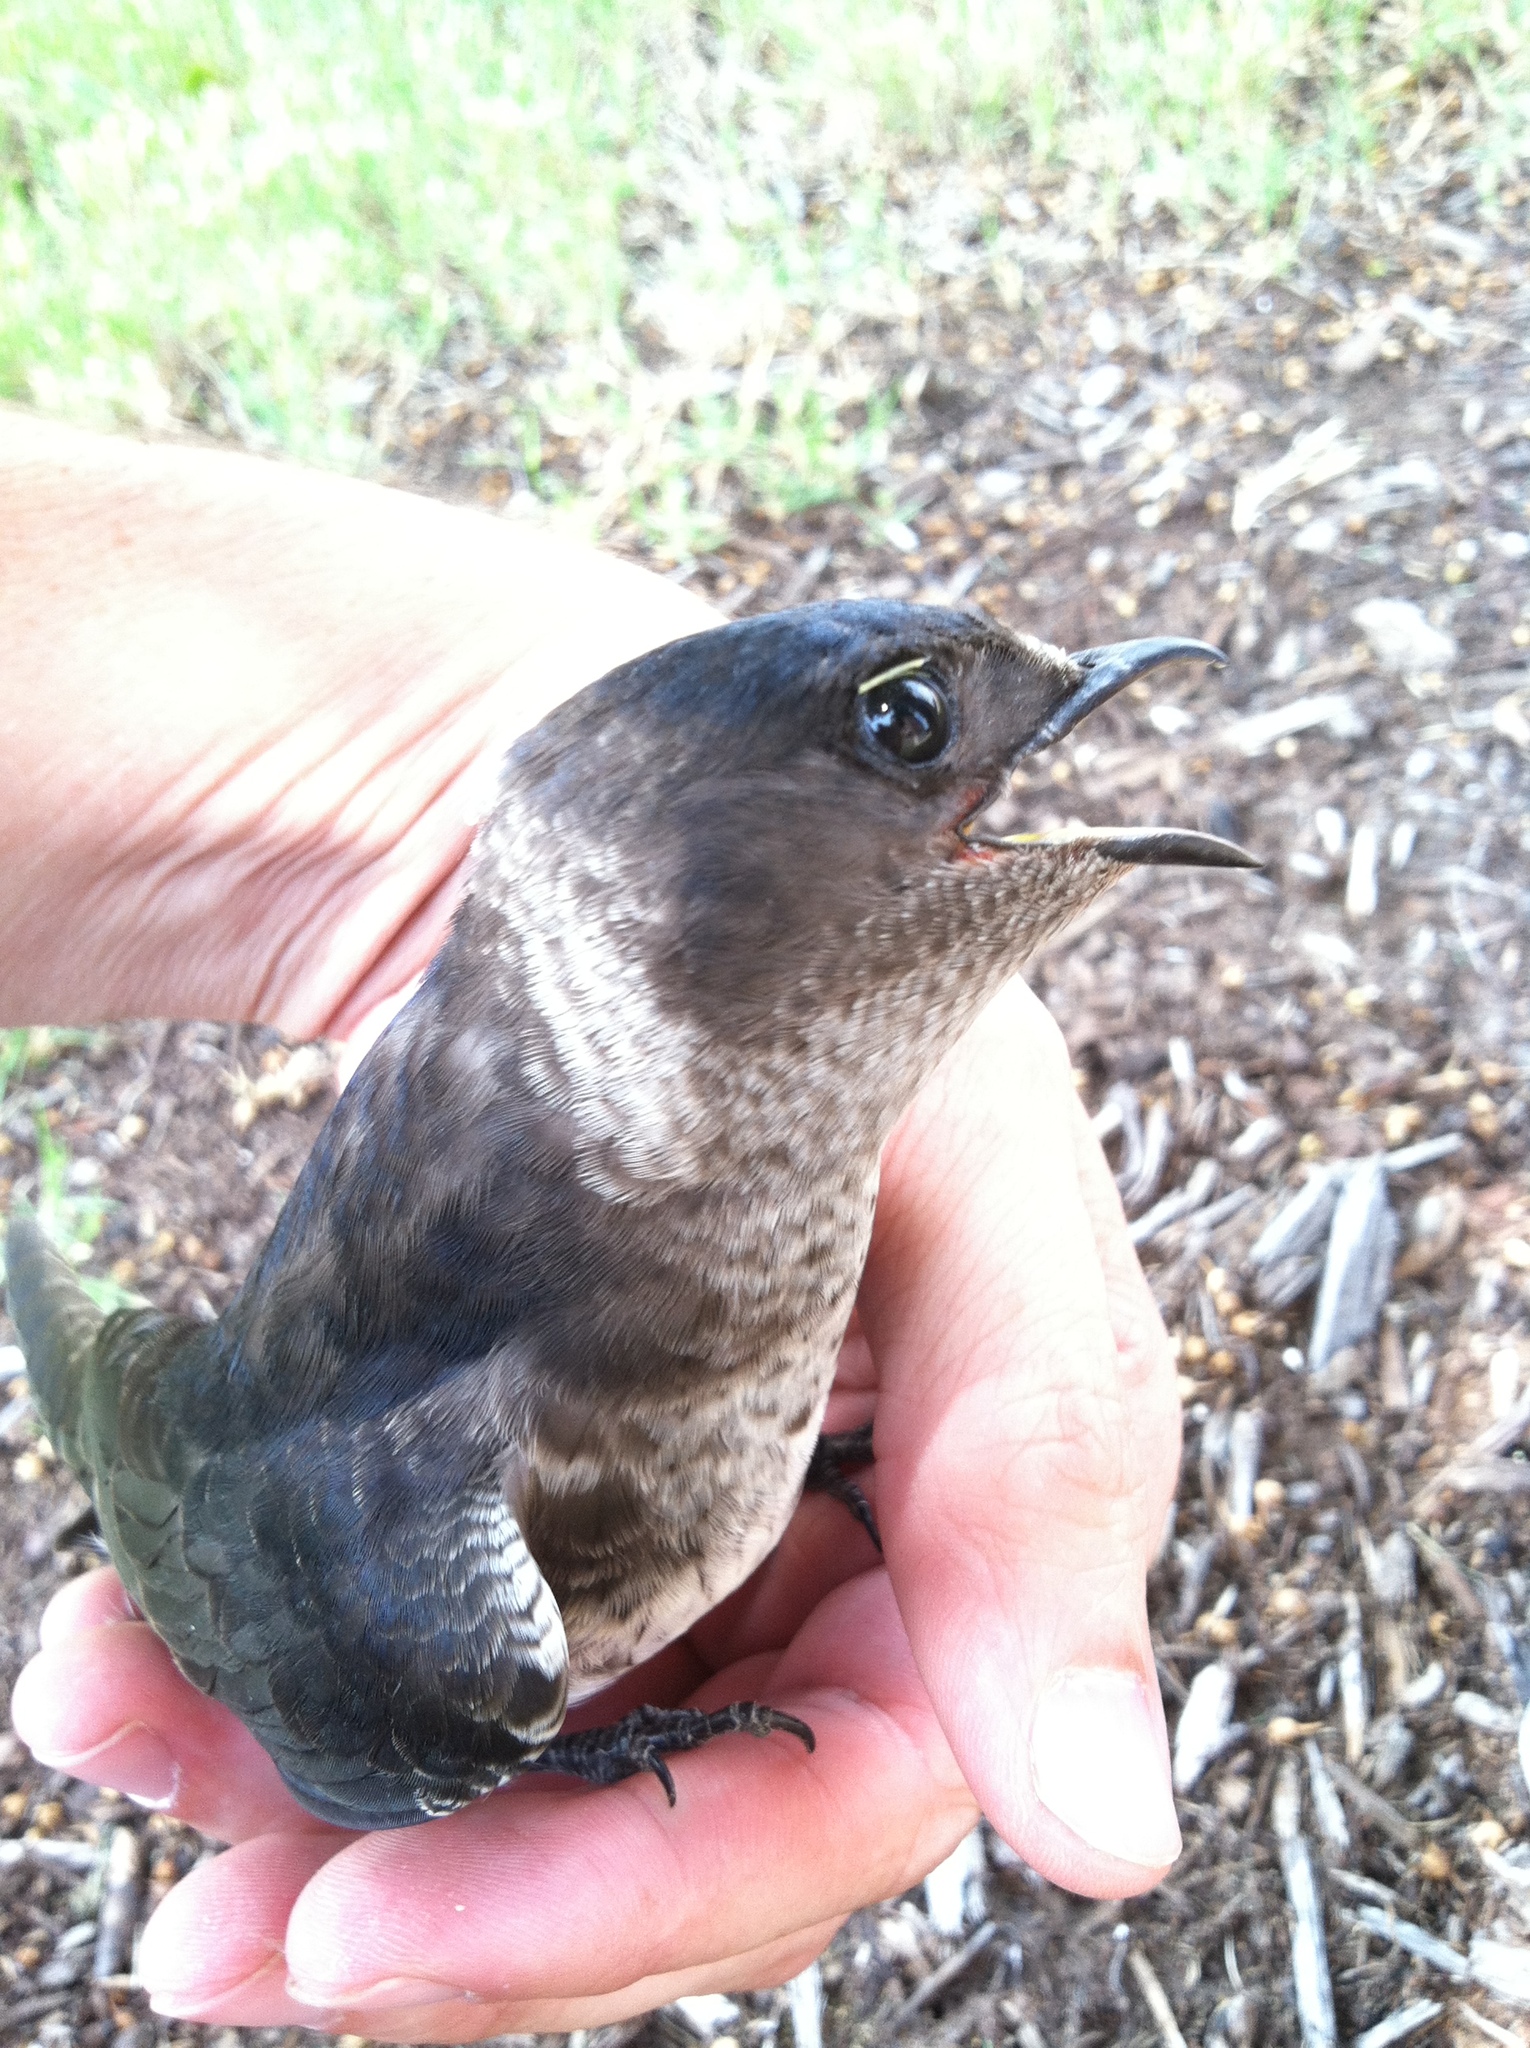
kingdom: Animalia
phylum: Chordata
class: Aves
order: Passeriformes
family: Hirundinidae
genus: Progne
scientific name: Progne subis
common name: Purple martin
